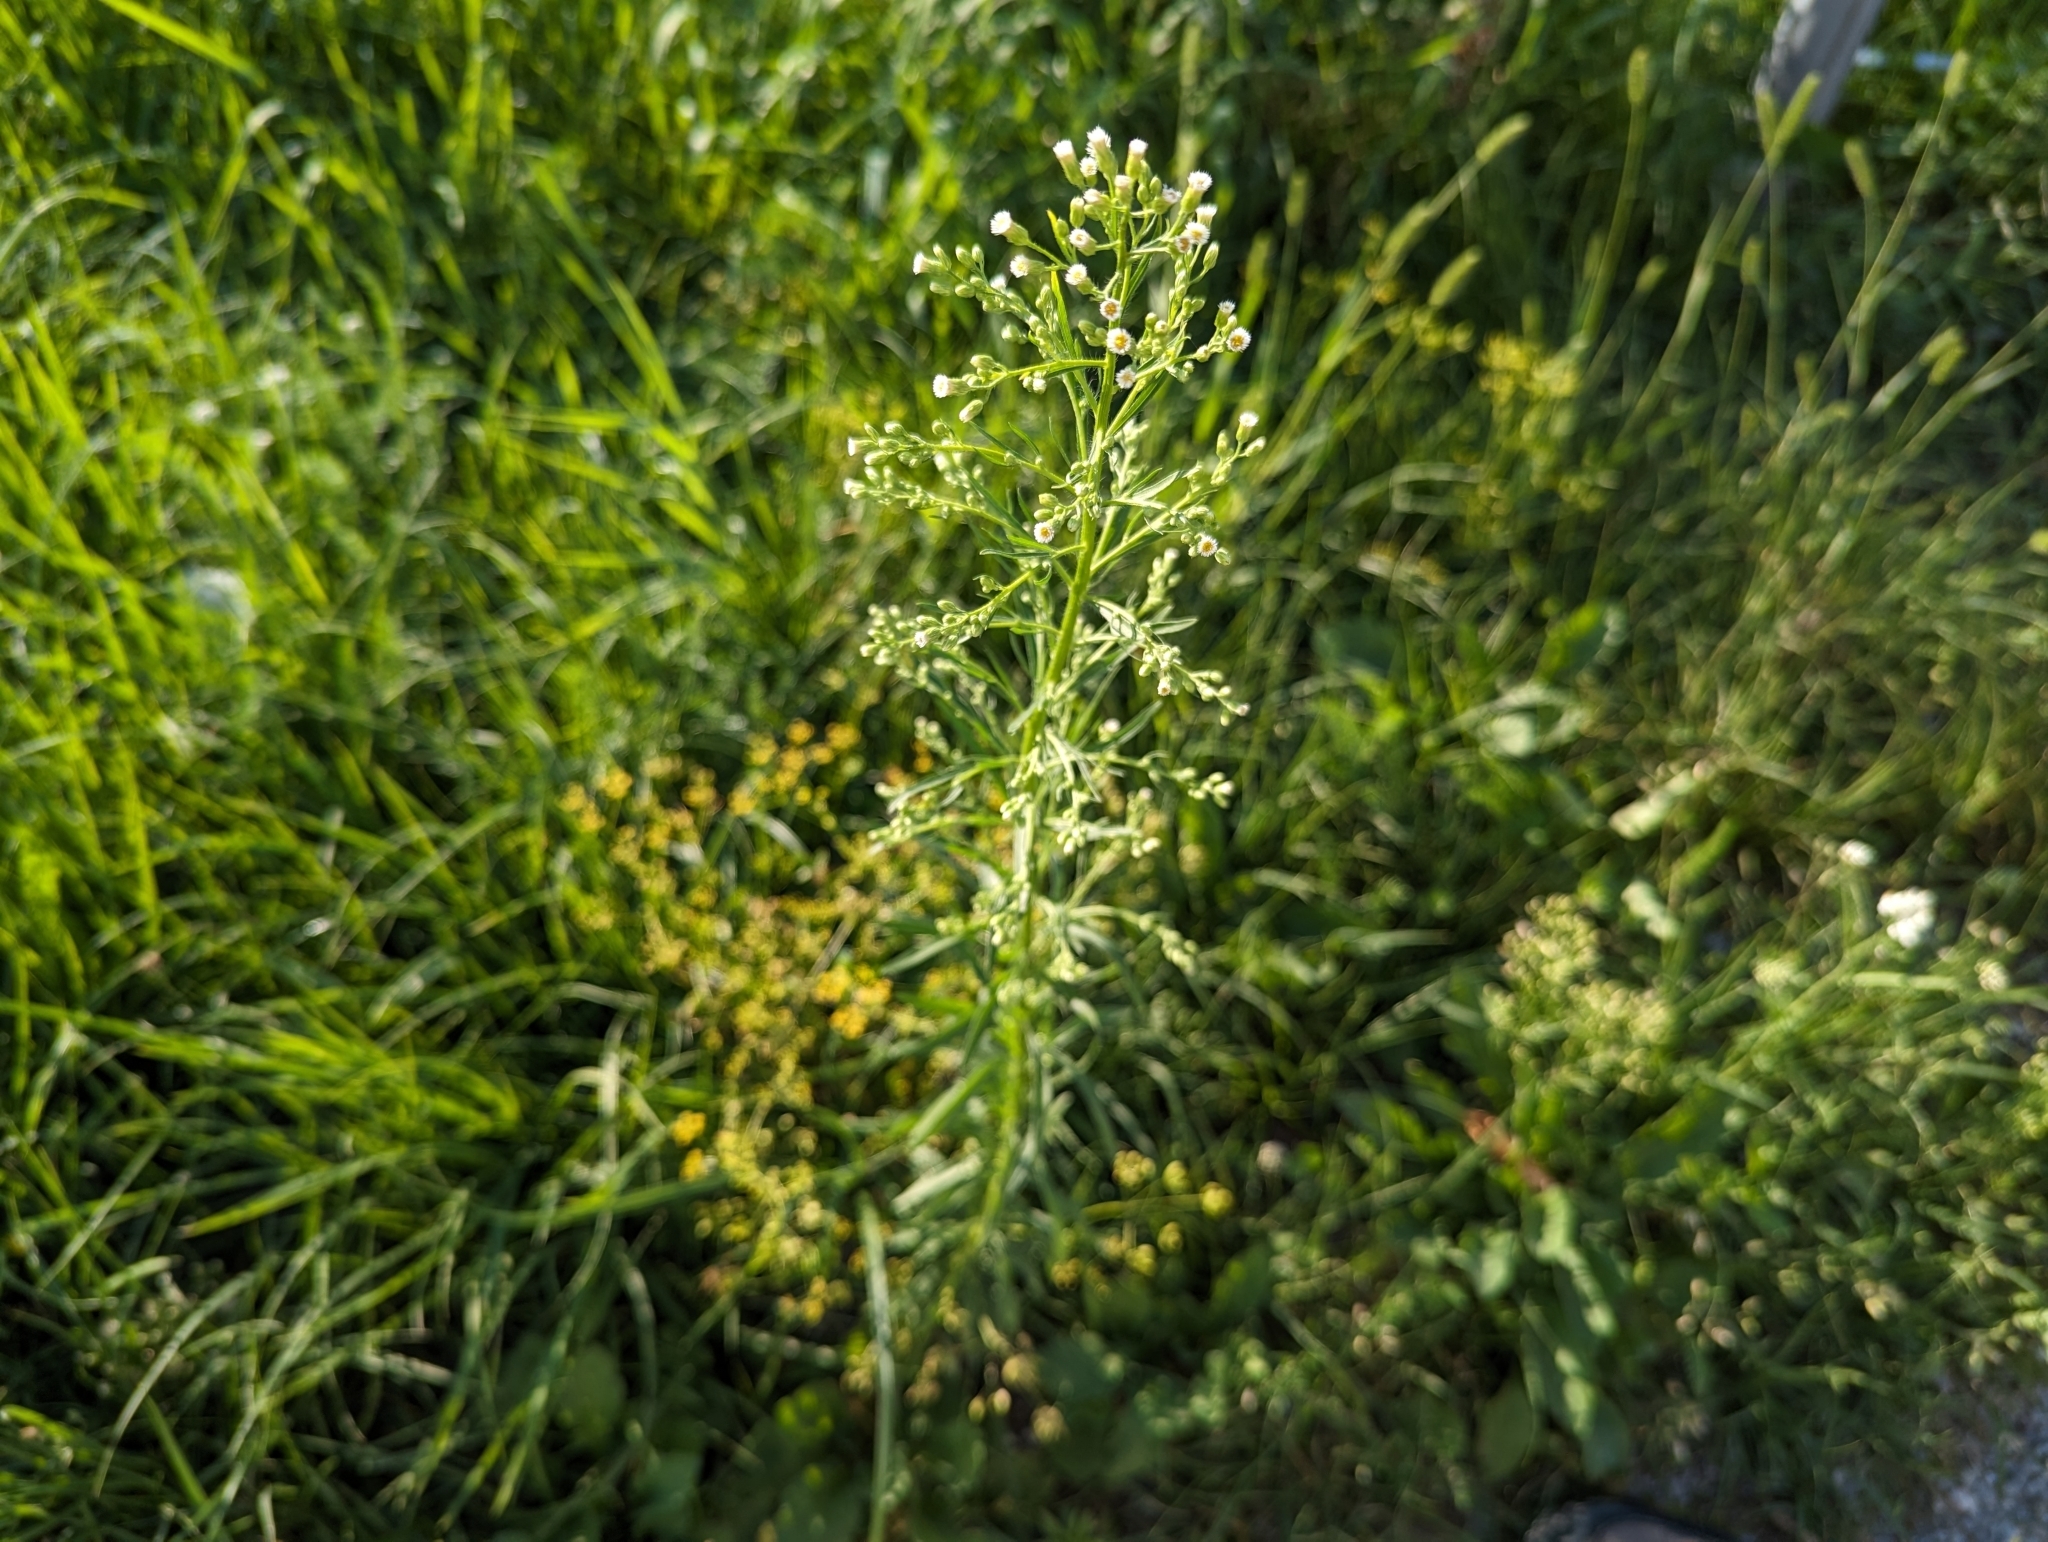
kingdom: Plantae
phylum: Tracheophyta
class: Magnoliopsida
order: Asterales
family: Asteraceae
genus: Erigeron
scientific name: Erigeron canadensis
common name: Canadian fleabane
